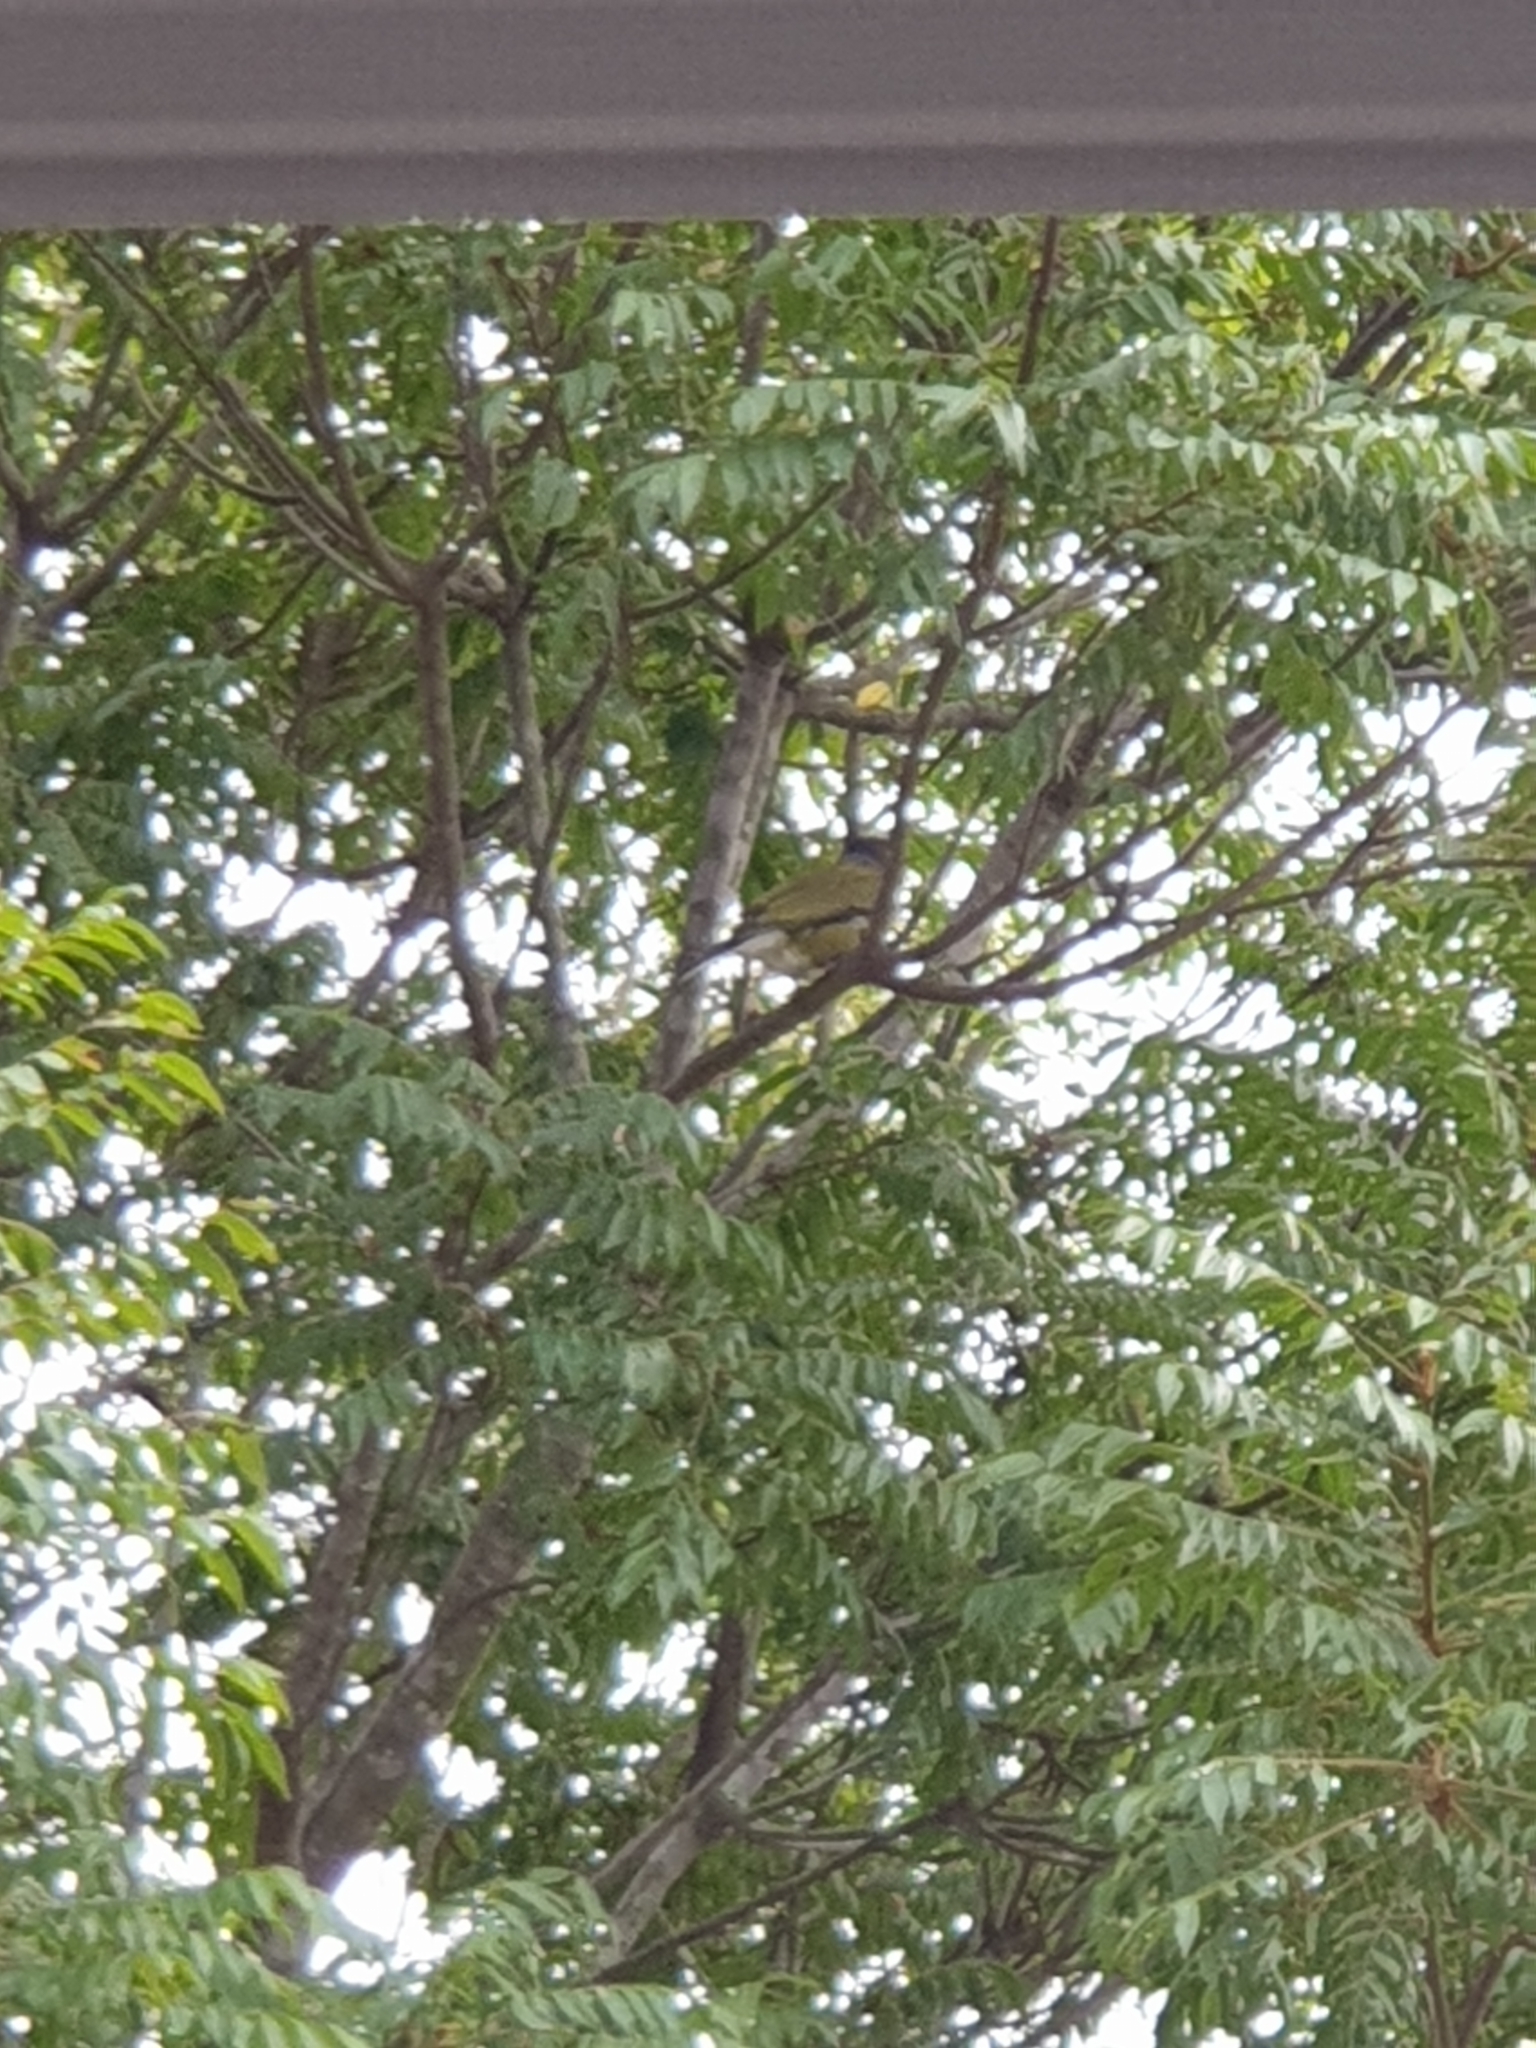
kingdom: Animalia
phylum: Chordata
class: Aves
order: Passeriformes
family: Oriolidae
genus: Sphecotheres
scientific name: Sphecotheres vieilloti
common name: Australasian figbird
